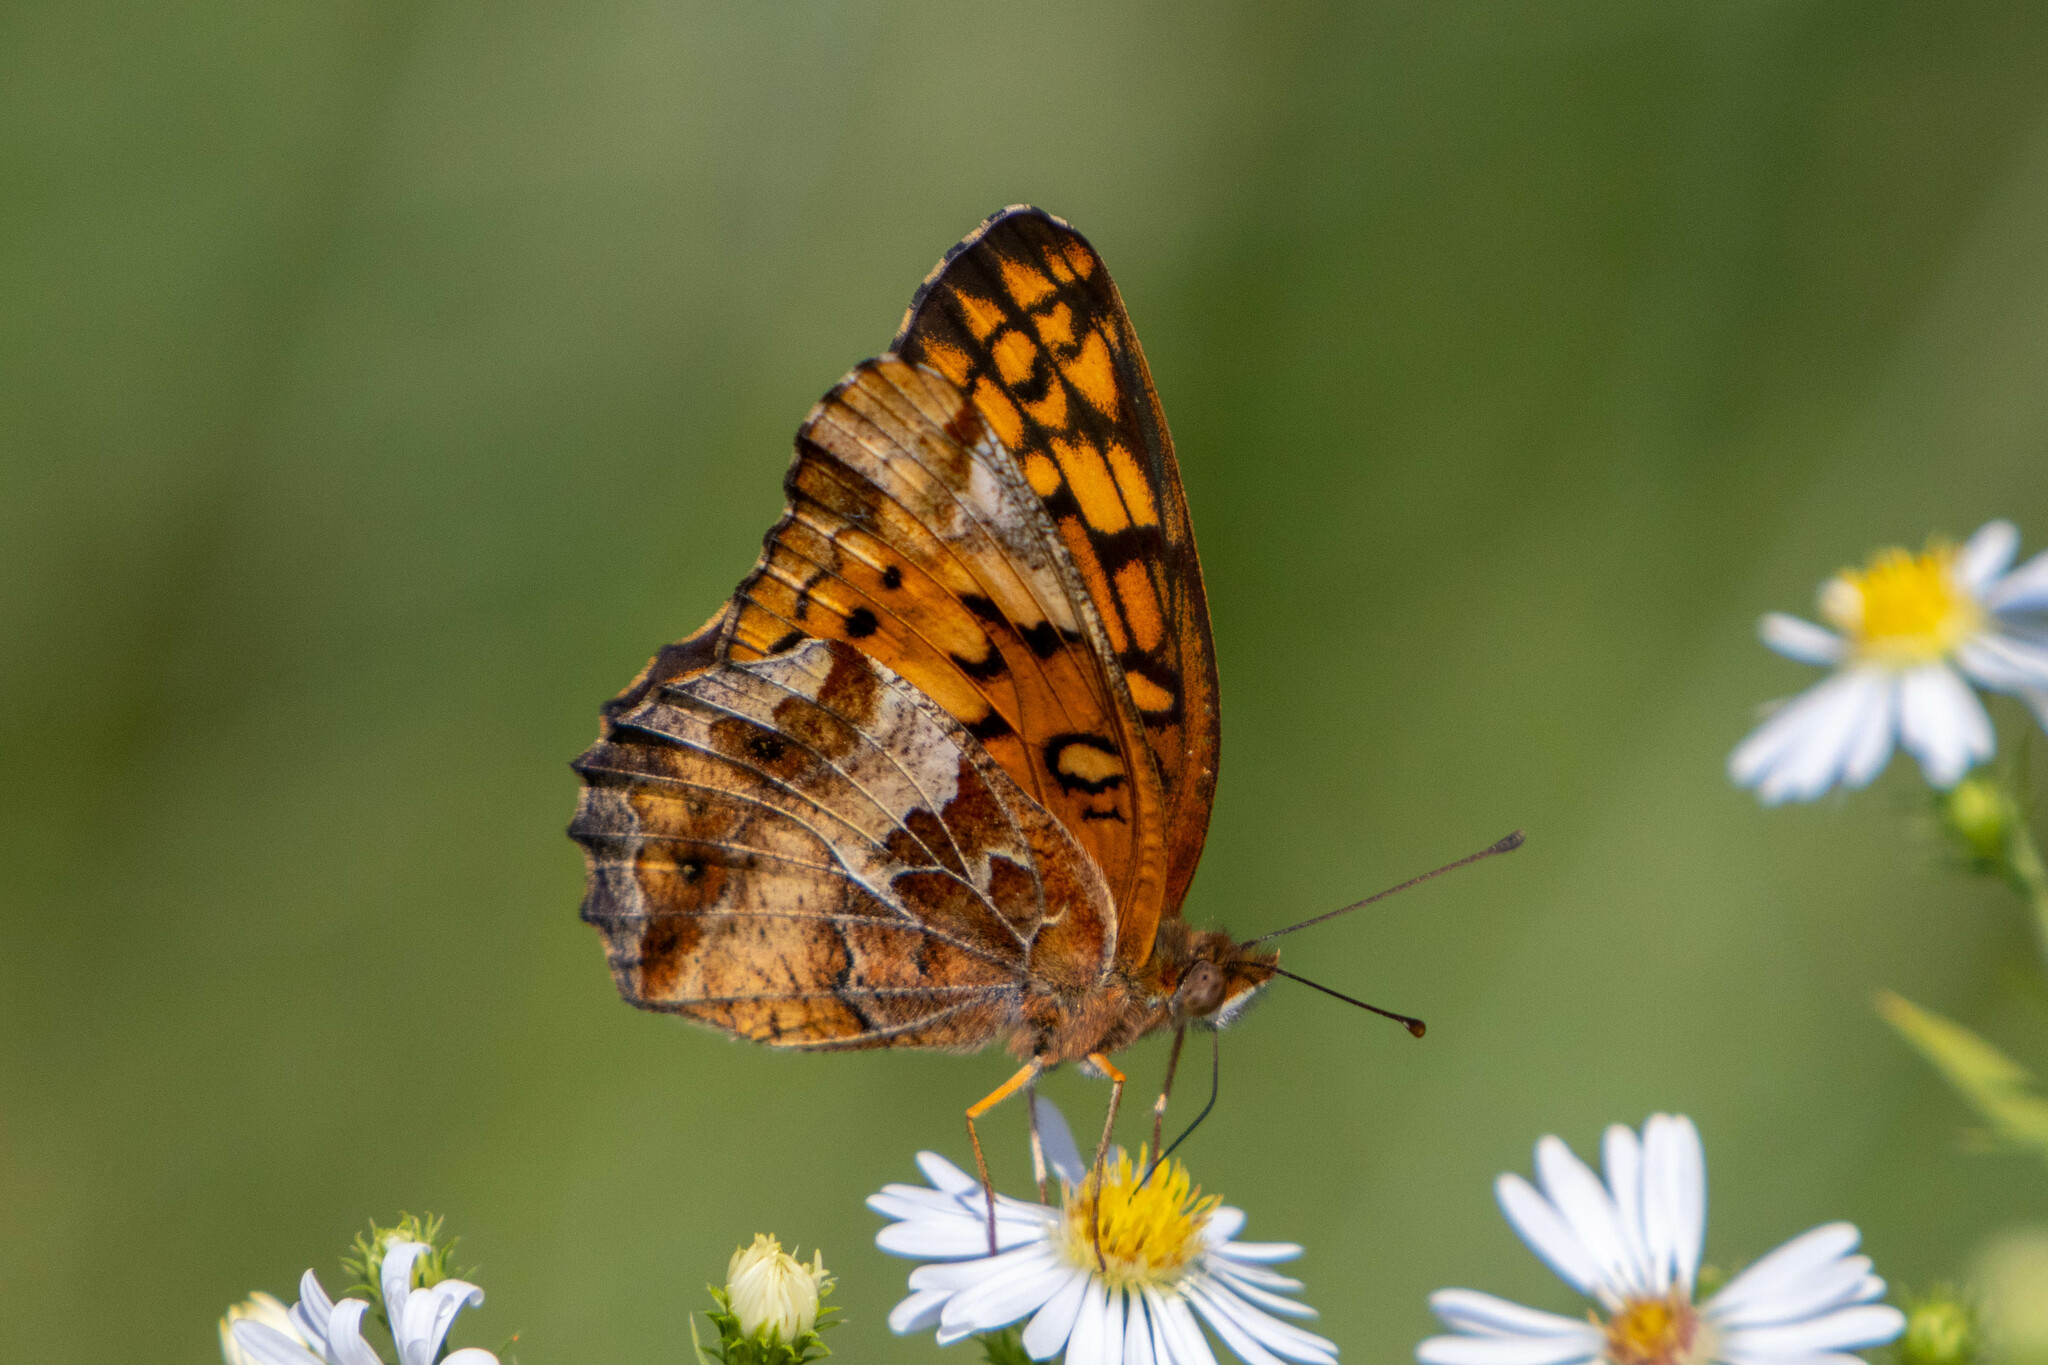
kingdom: Animalia
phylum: Arthropoda
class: Insecta
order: Lepidoptera
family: Nymphalidae
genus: Euptoieta
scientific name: Euptoieta claudia
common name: Variegated fritillary
